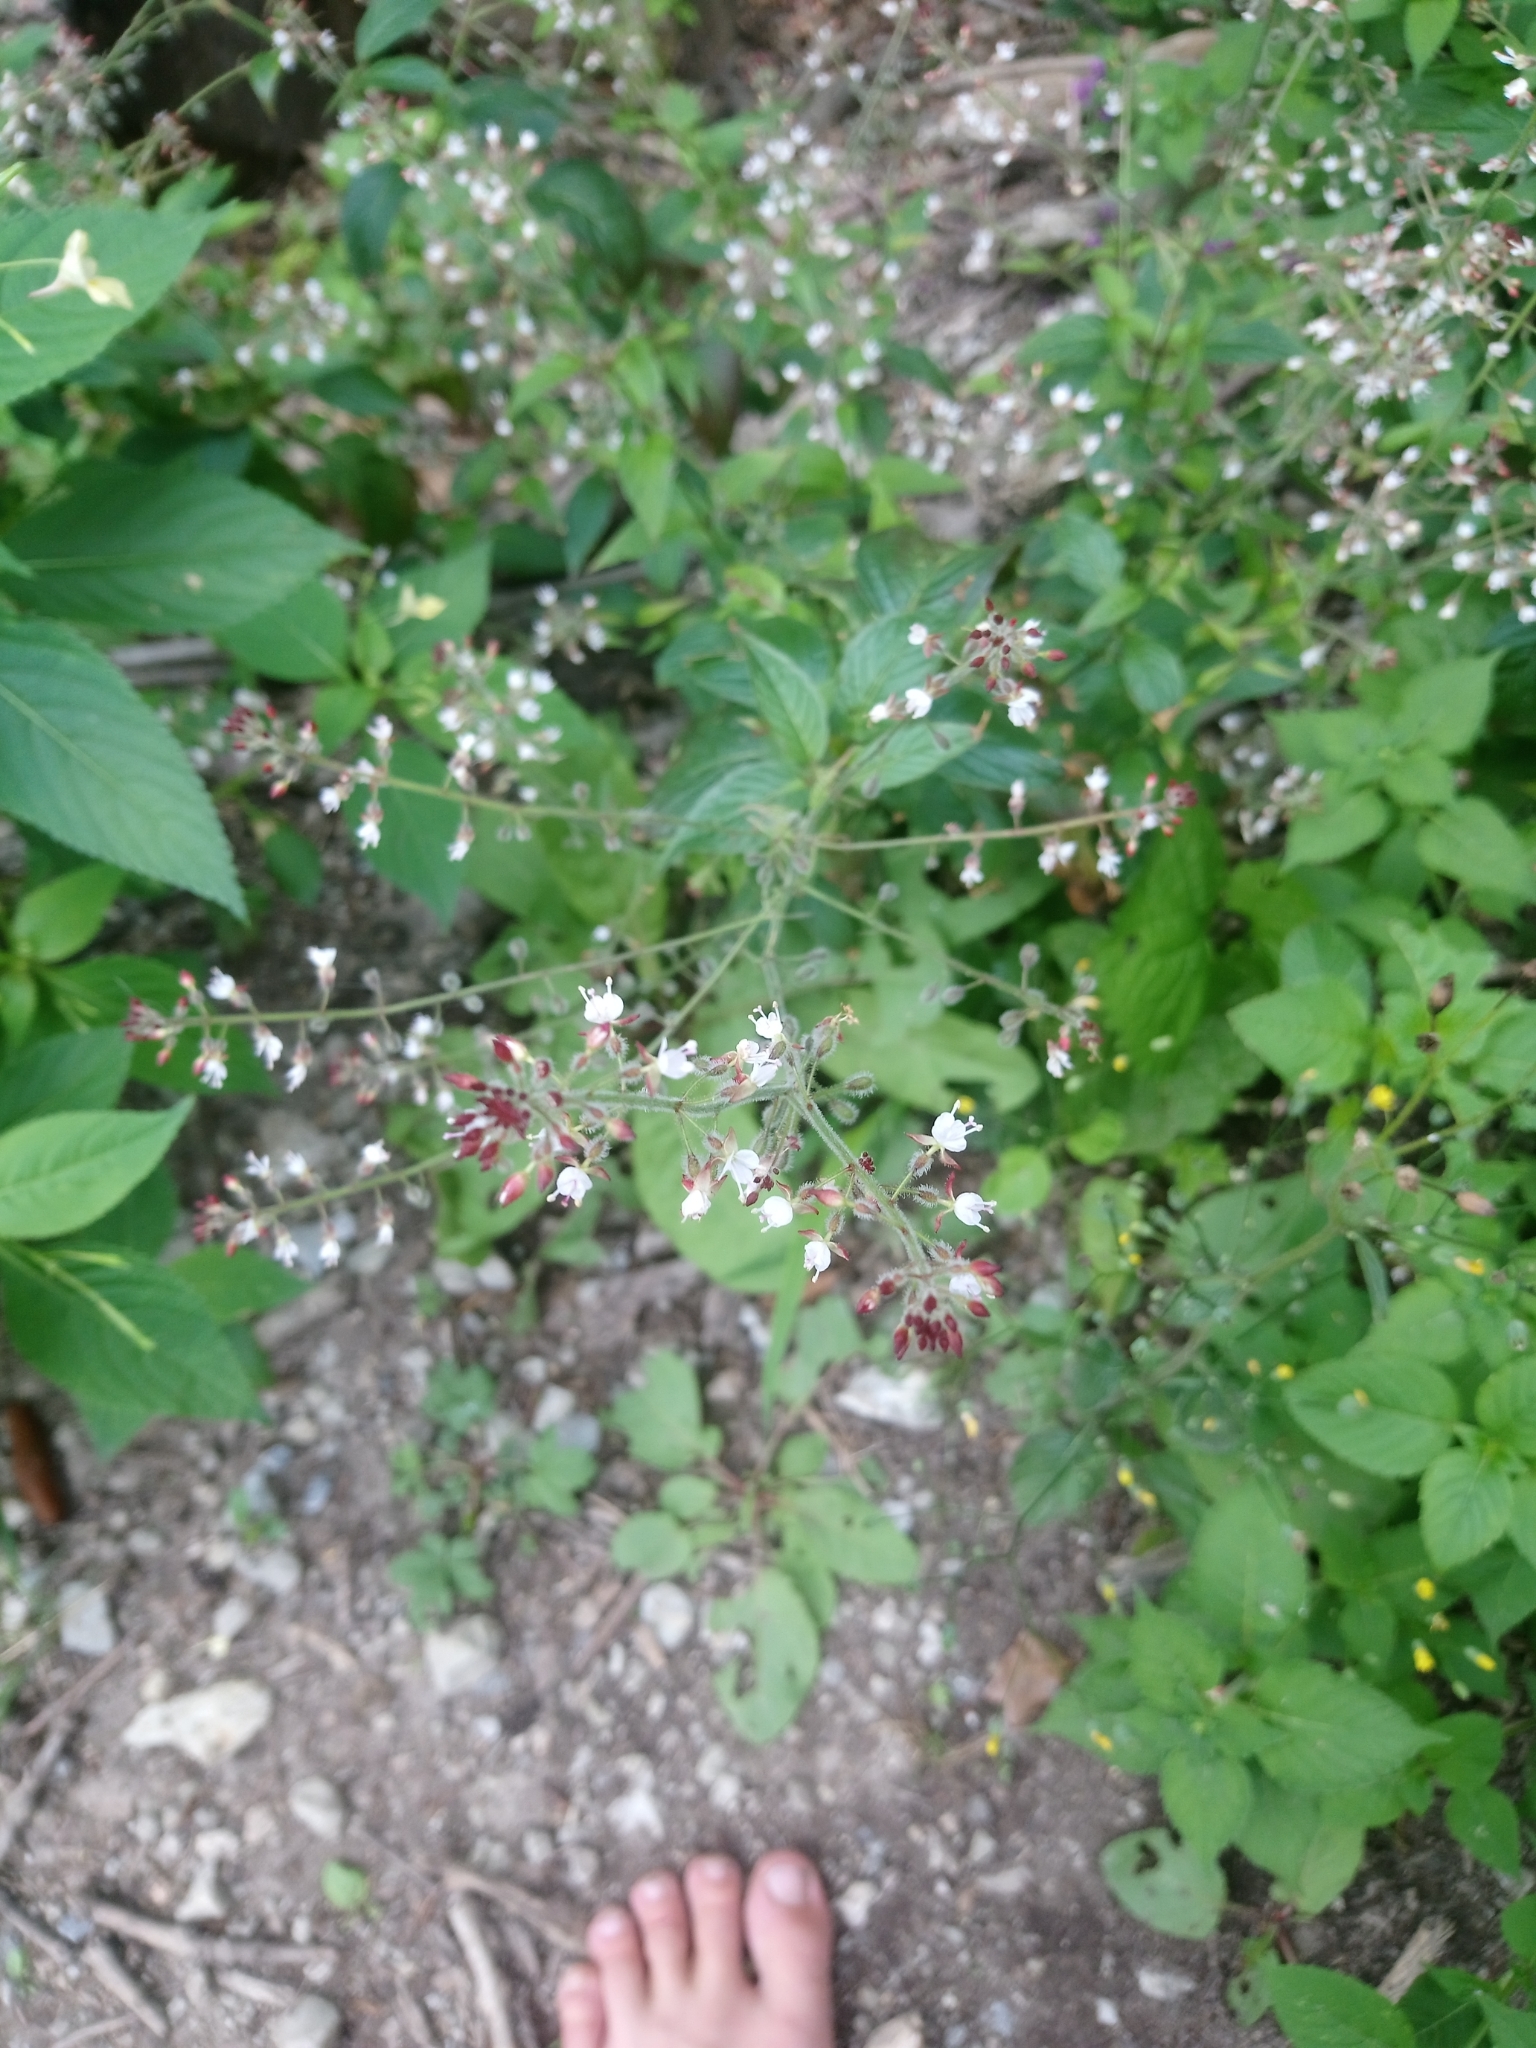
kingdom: Plantae
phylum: Tracheophyta
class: Magnoliopsida
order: Myrtales
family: Onagraceae
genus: Circaea
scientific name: Circaea lutetiana
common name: Enchanter's-nightshade
